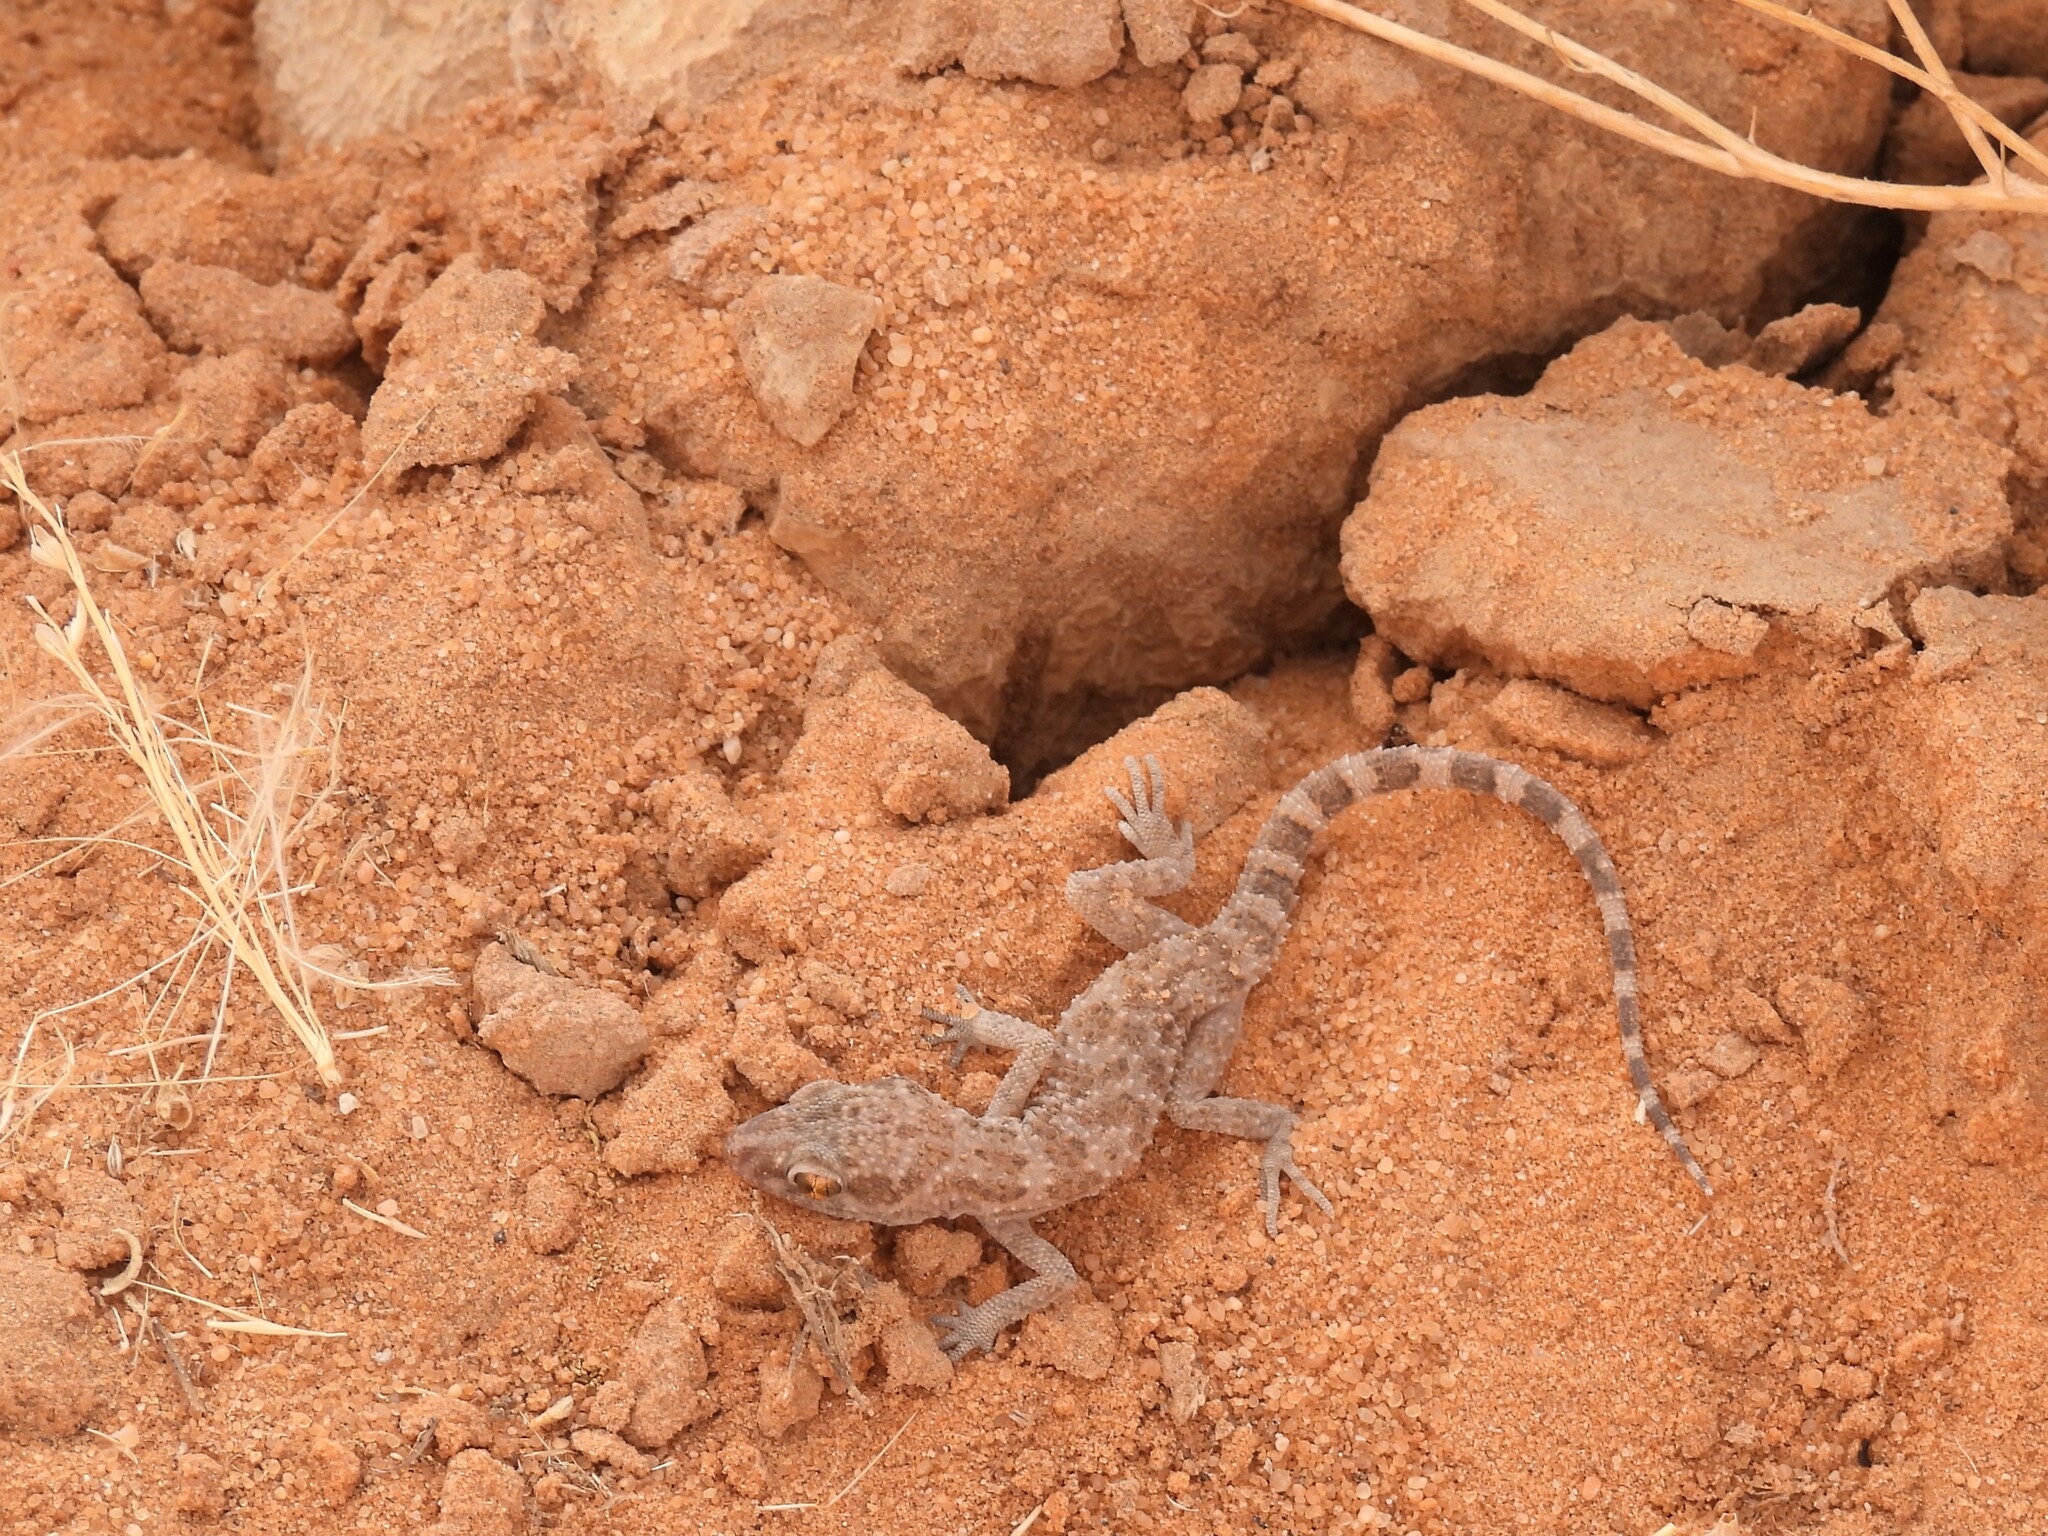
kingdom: Animalia
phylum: Chordata
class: Squamata
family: Gekkonidae
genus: Bunopus
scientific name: Bunopus tuberculatus
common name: Southern tuberculated gecko
